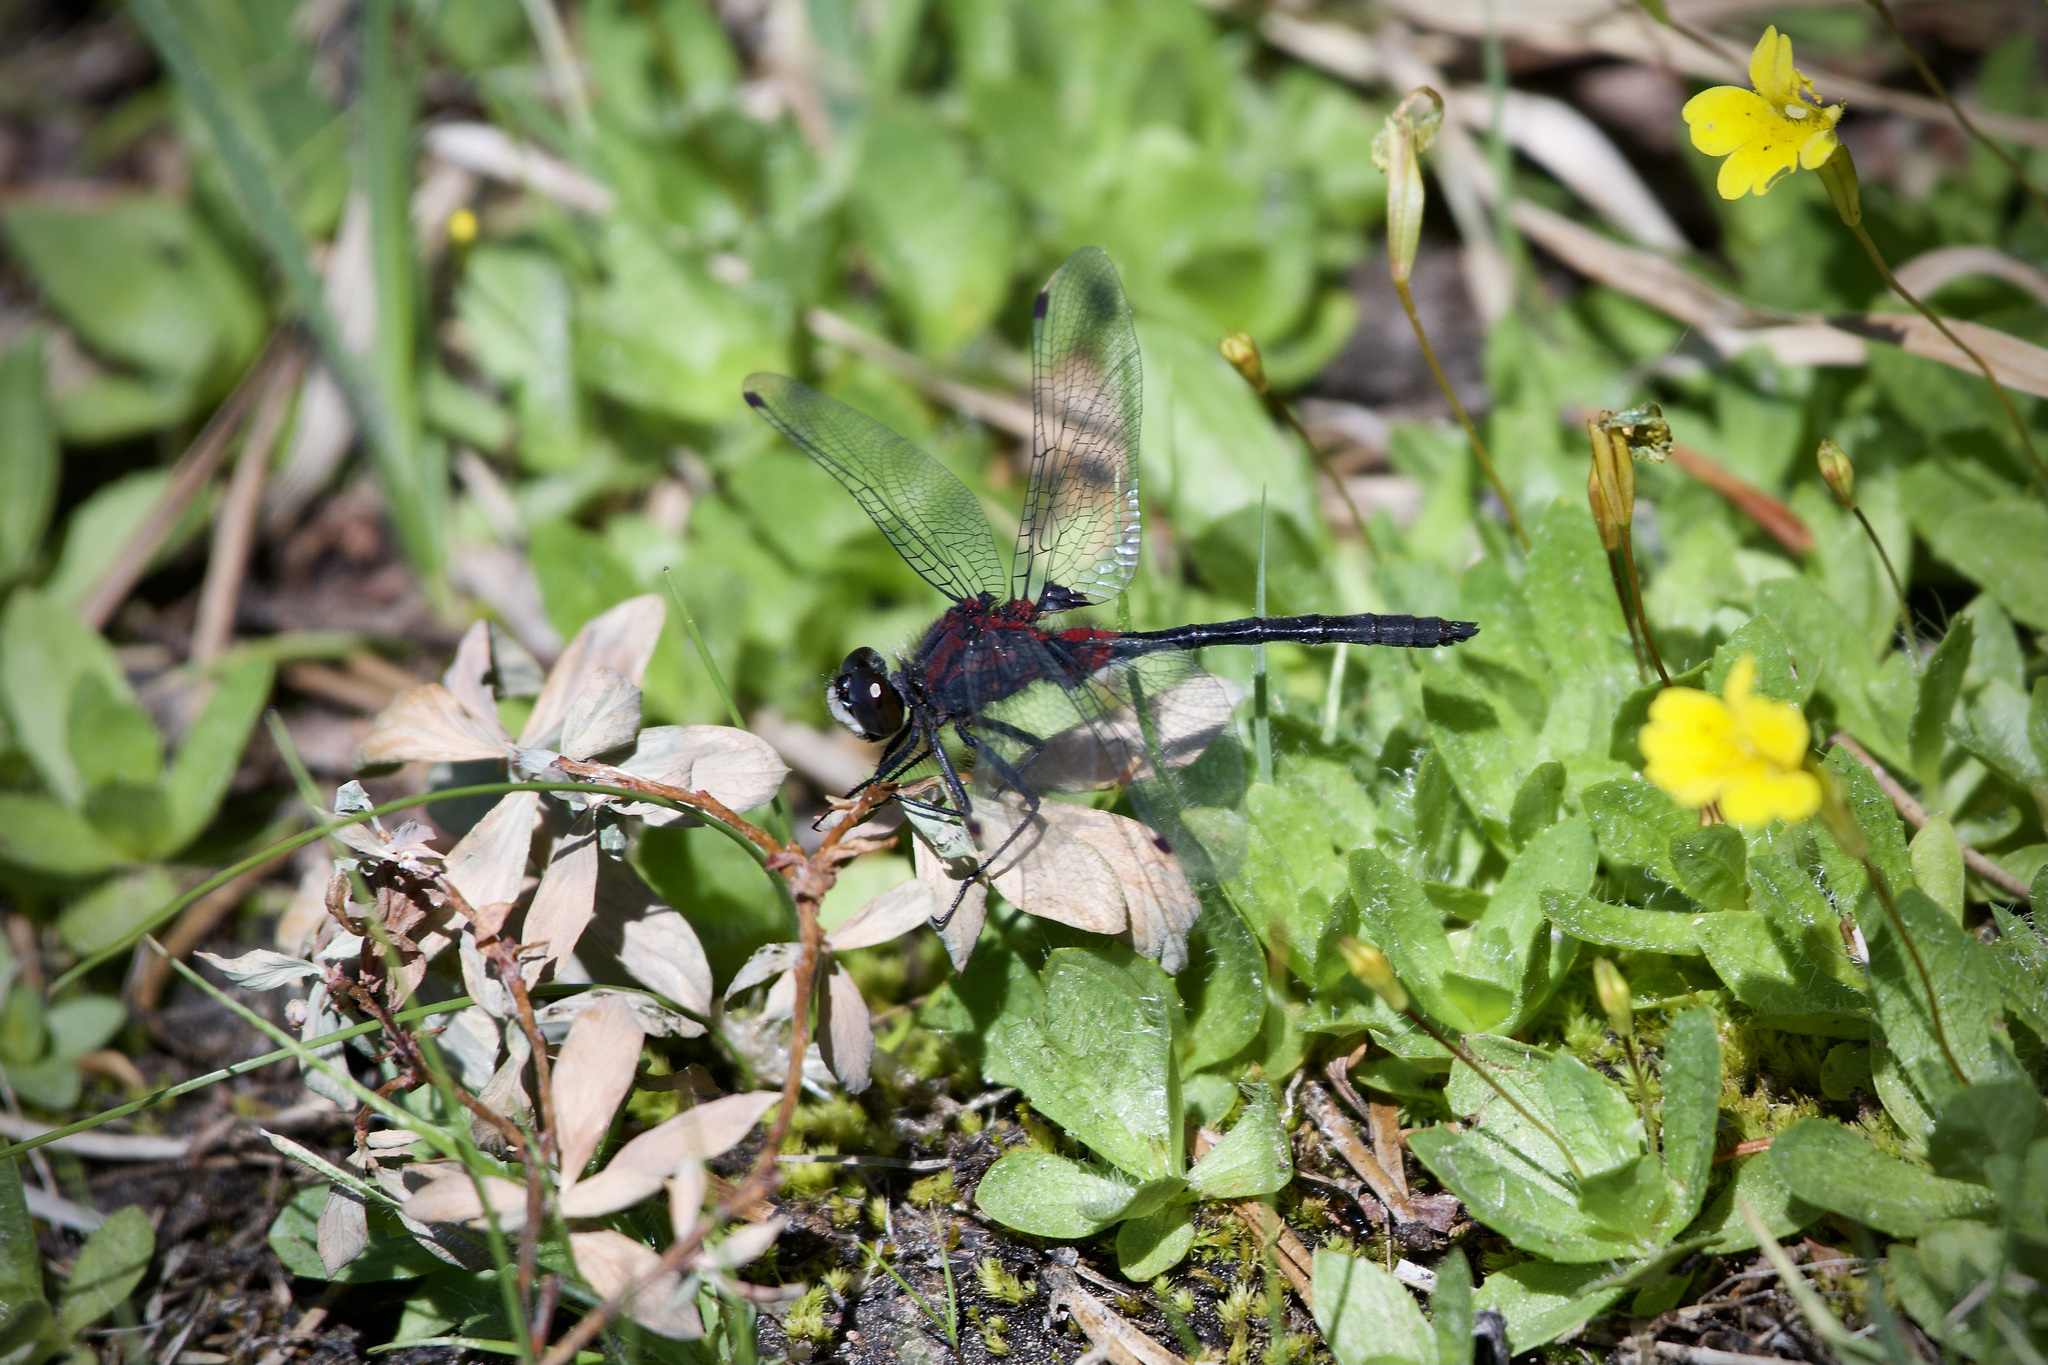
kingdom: Animalia
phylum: Arthropoda
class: Insecta
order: Odonata
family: Libellulidae
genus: Leucorrhinia
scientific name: Leucorrhinia glacialis
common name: Crimson-ringed whiteface
